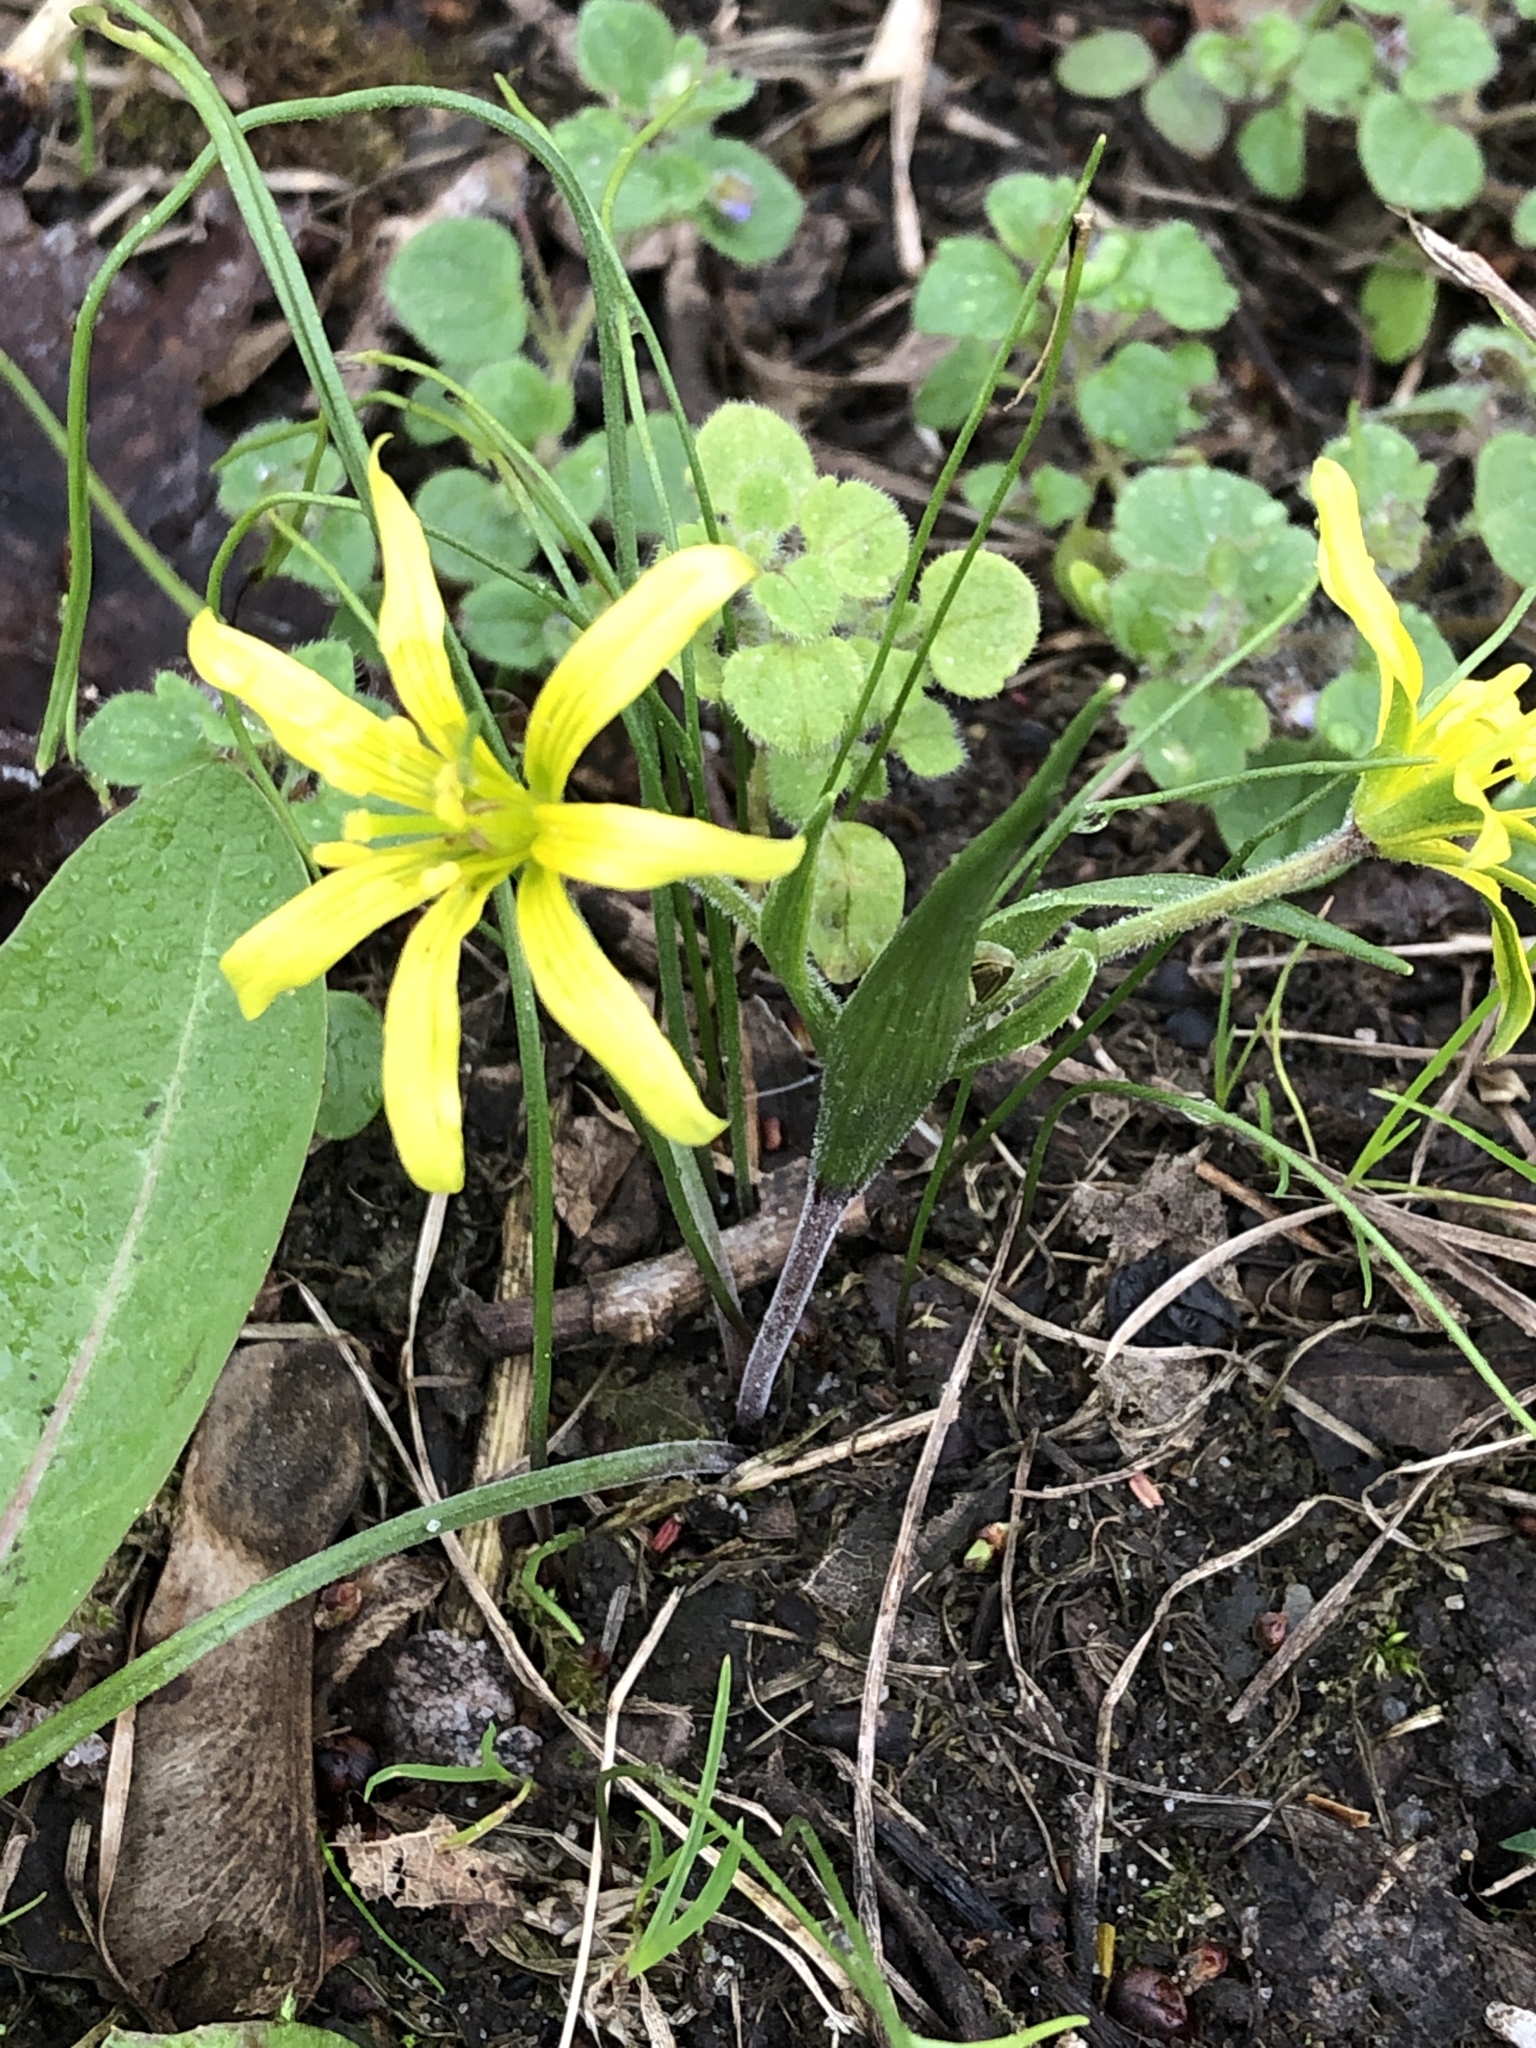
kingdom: Plantae
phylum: Tracheophyta
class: Liliopsida
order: Liliales
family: Liliaceae
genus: Gagea
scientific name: Gagea villosa
